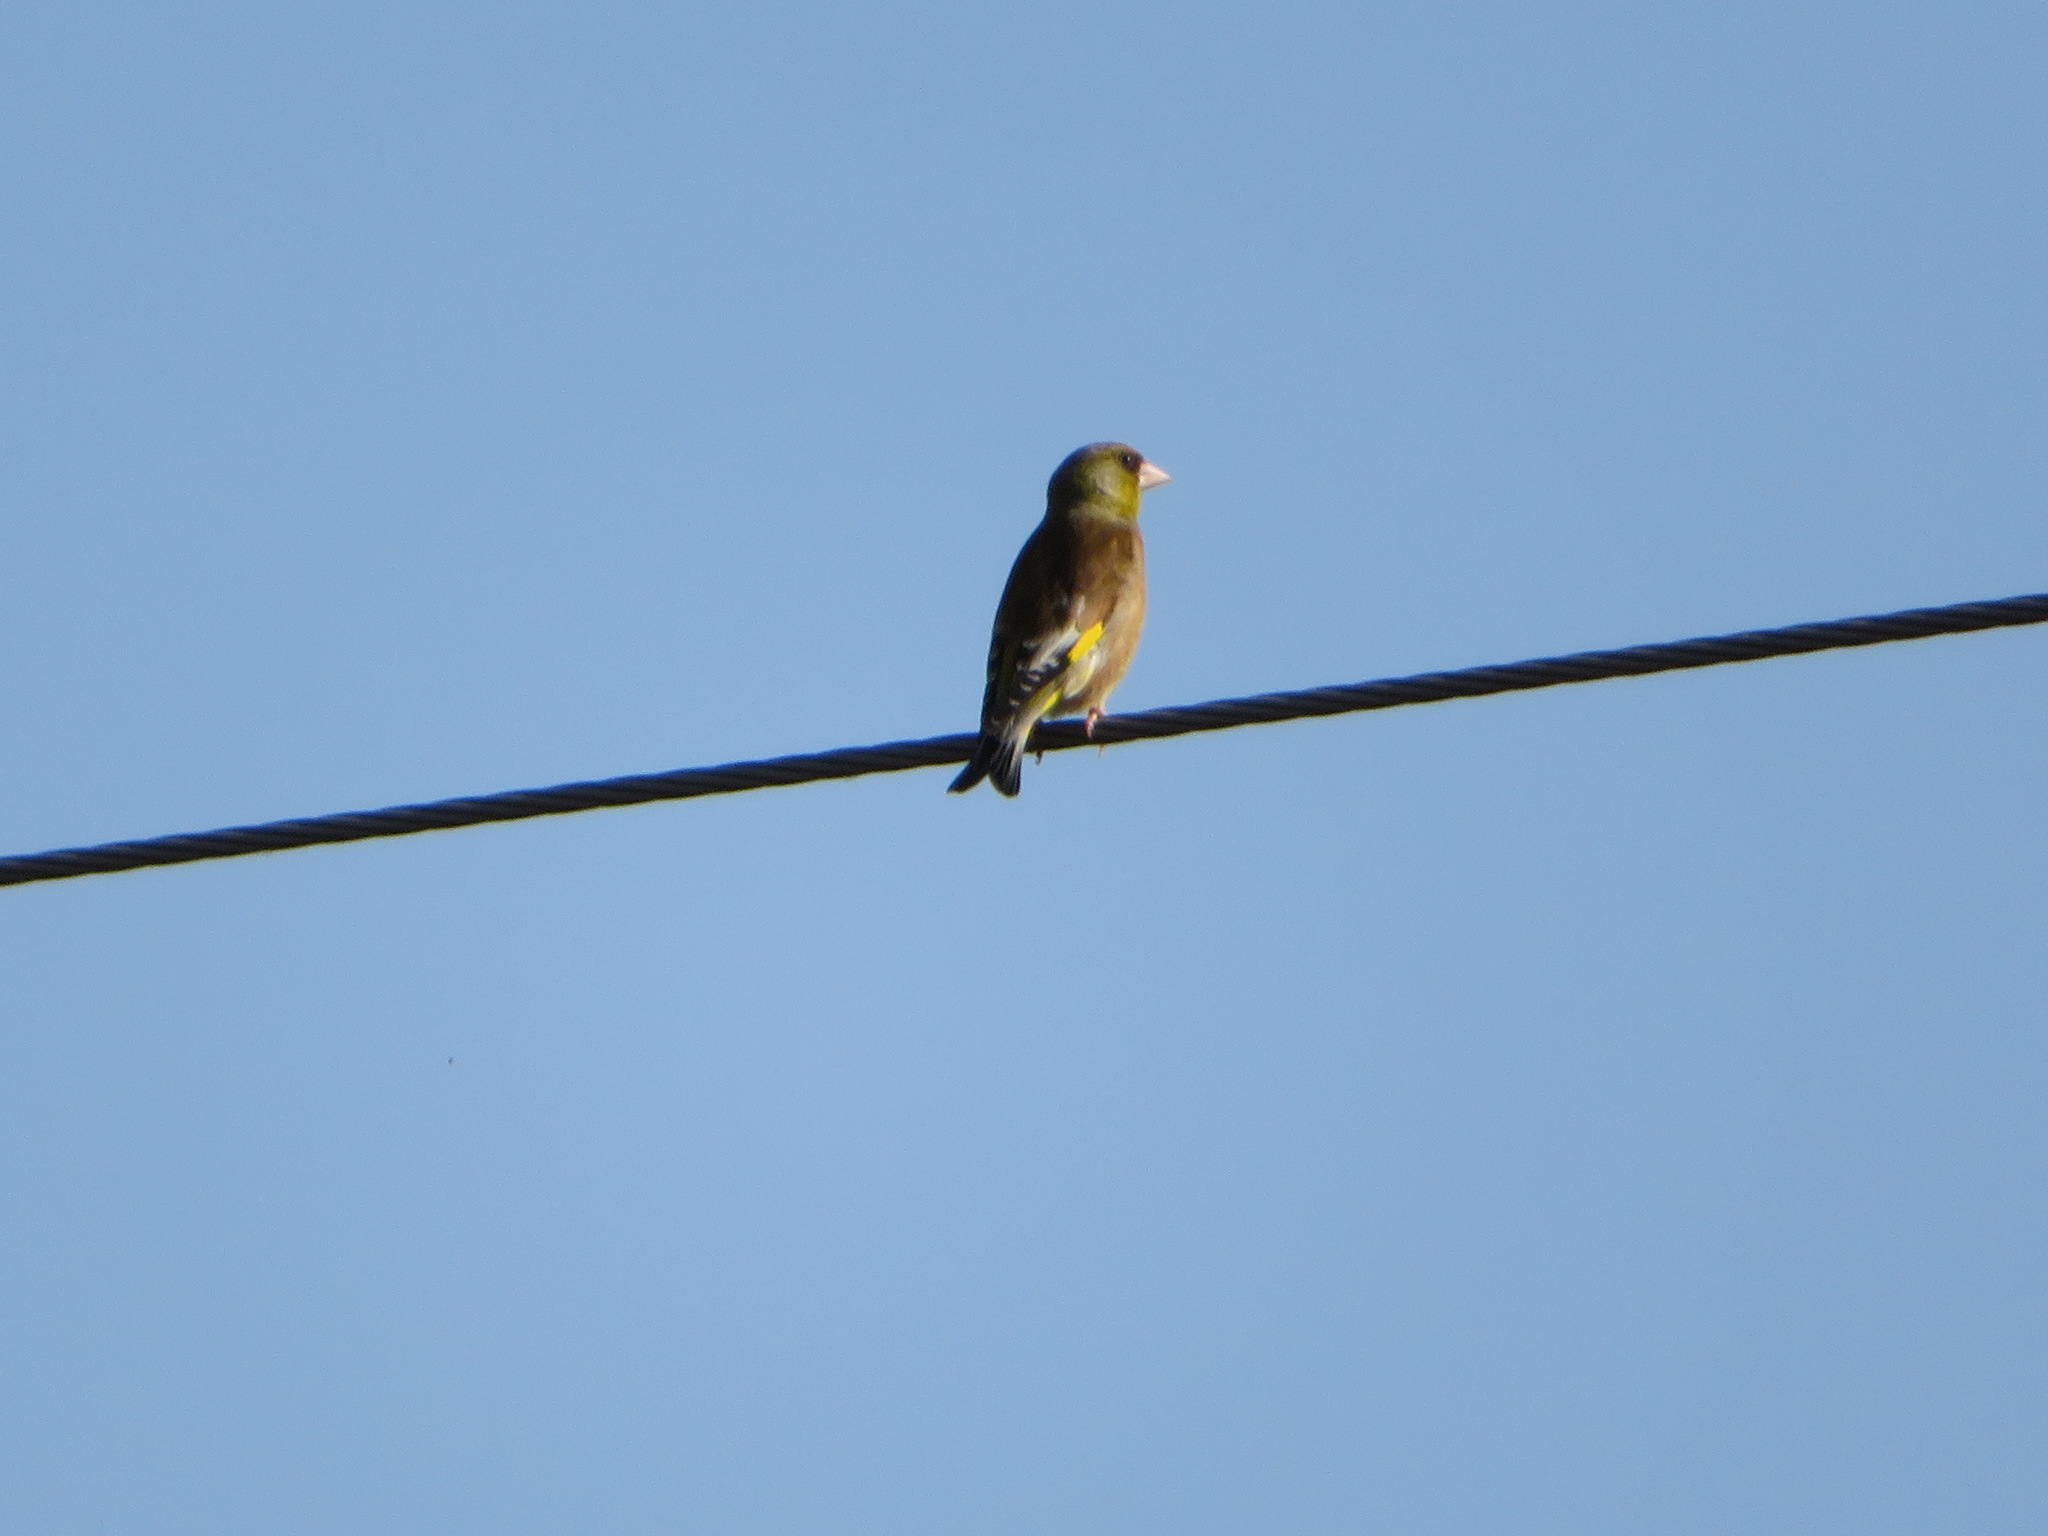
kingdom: Plantae
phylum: Tracheophyta
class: Liliopsida
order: Poales
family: Poaceae
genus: Chloris
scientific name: Chloris sinica
